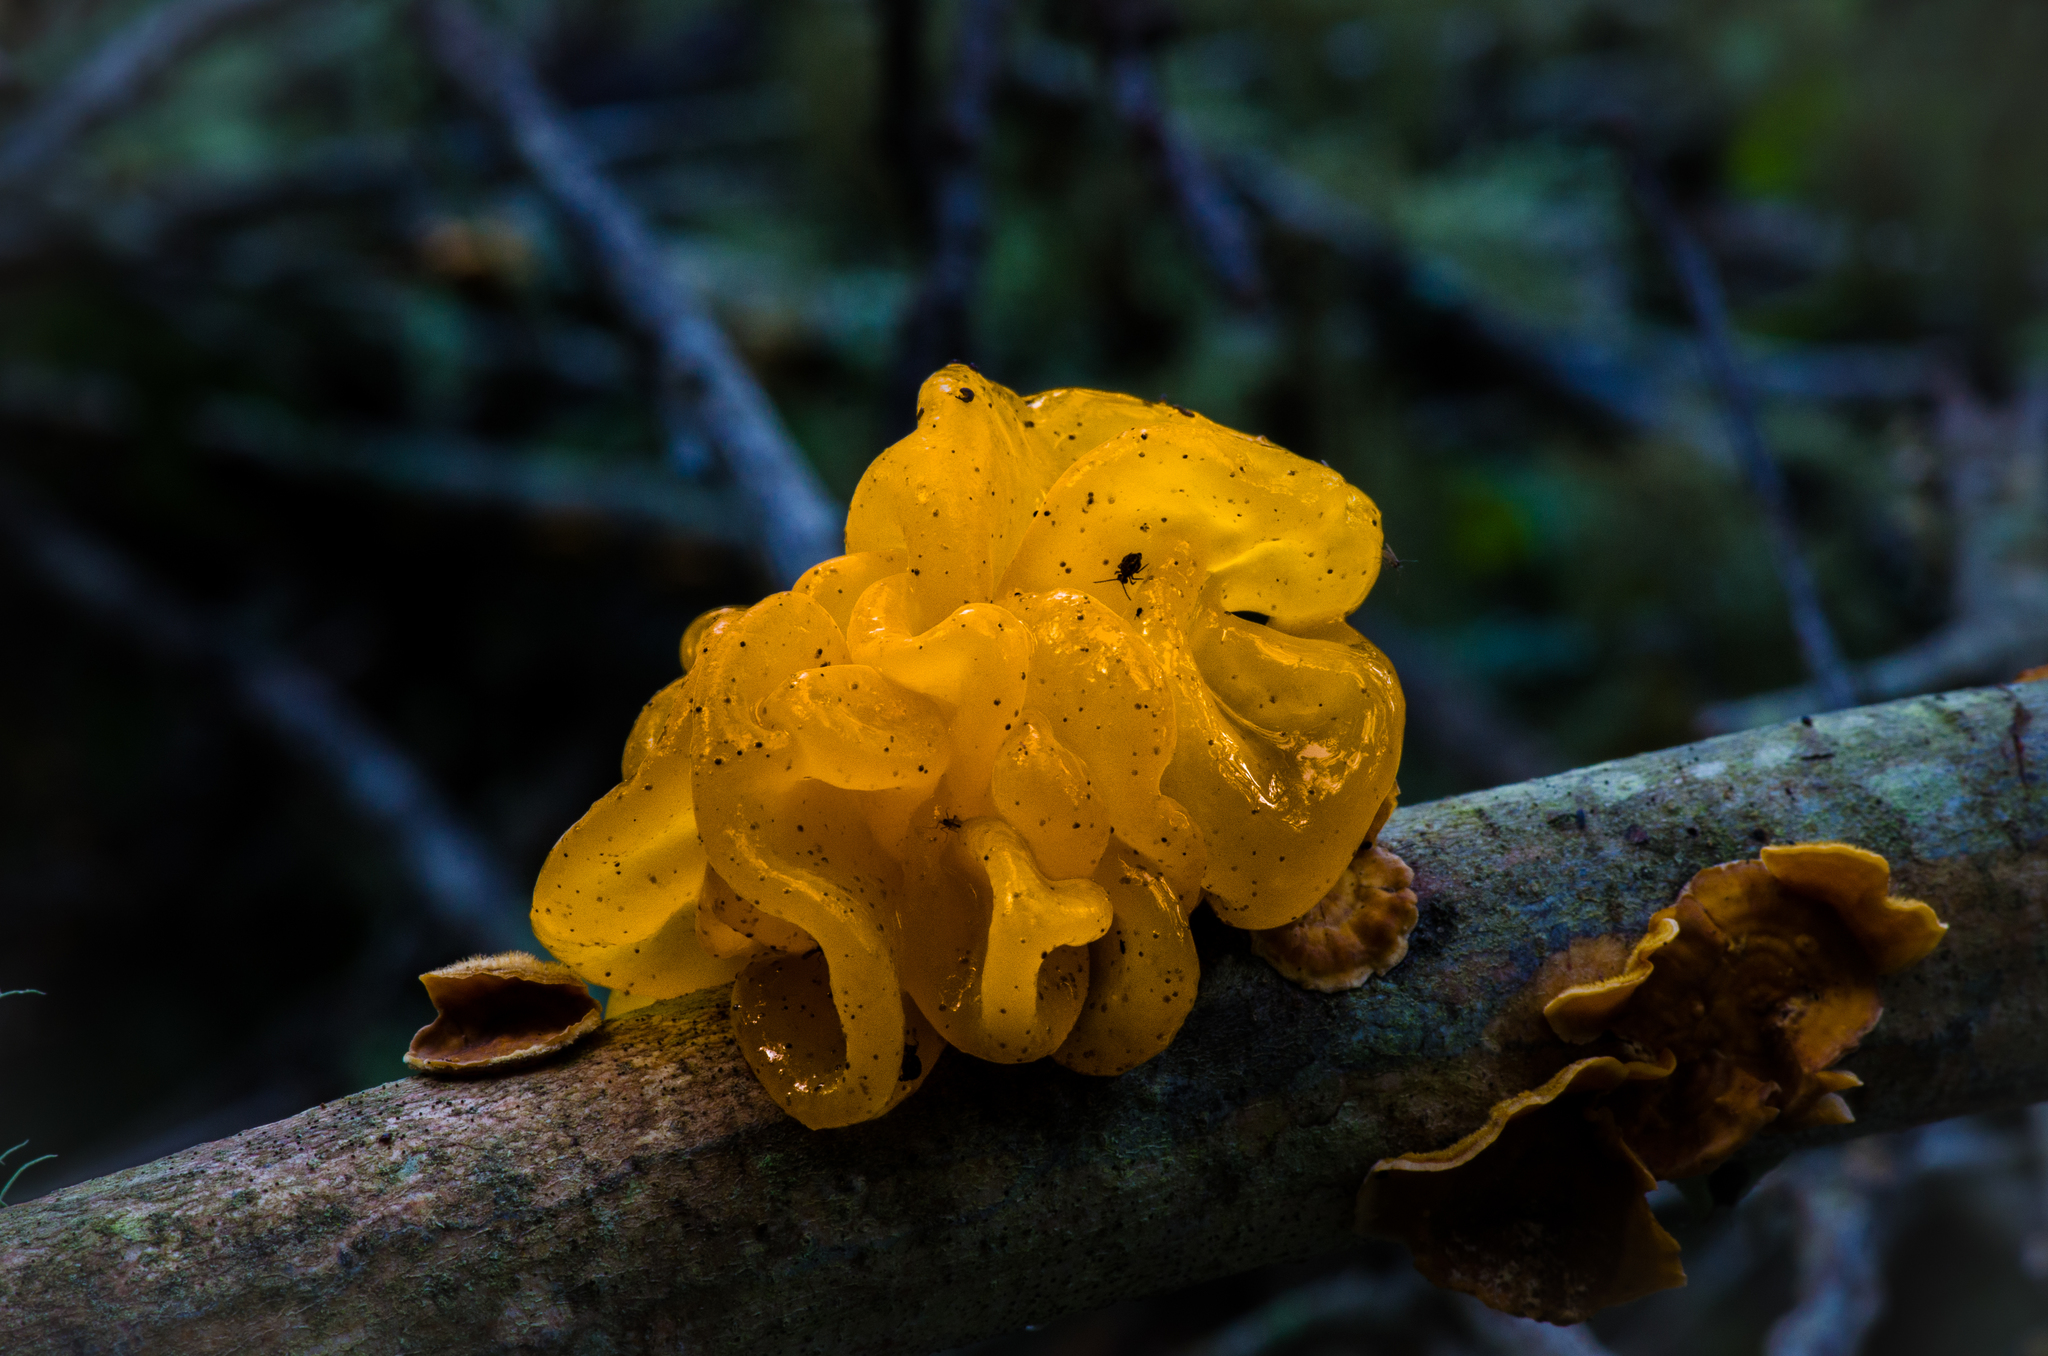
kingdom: Fungi
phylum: Basidiomycota
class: Tremellomycetes
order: Tremellales
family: Naemateliaceae
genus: Naematelia
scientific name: Naematelia aurantia
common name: Golden ear
